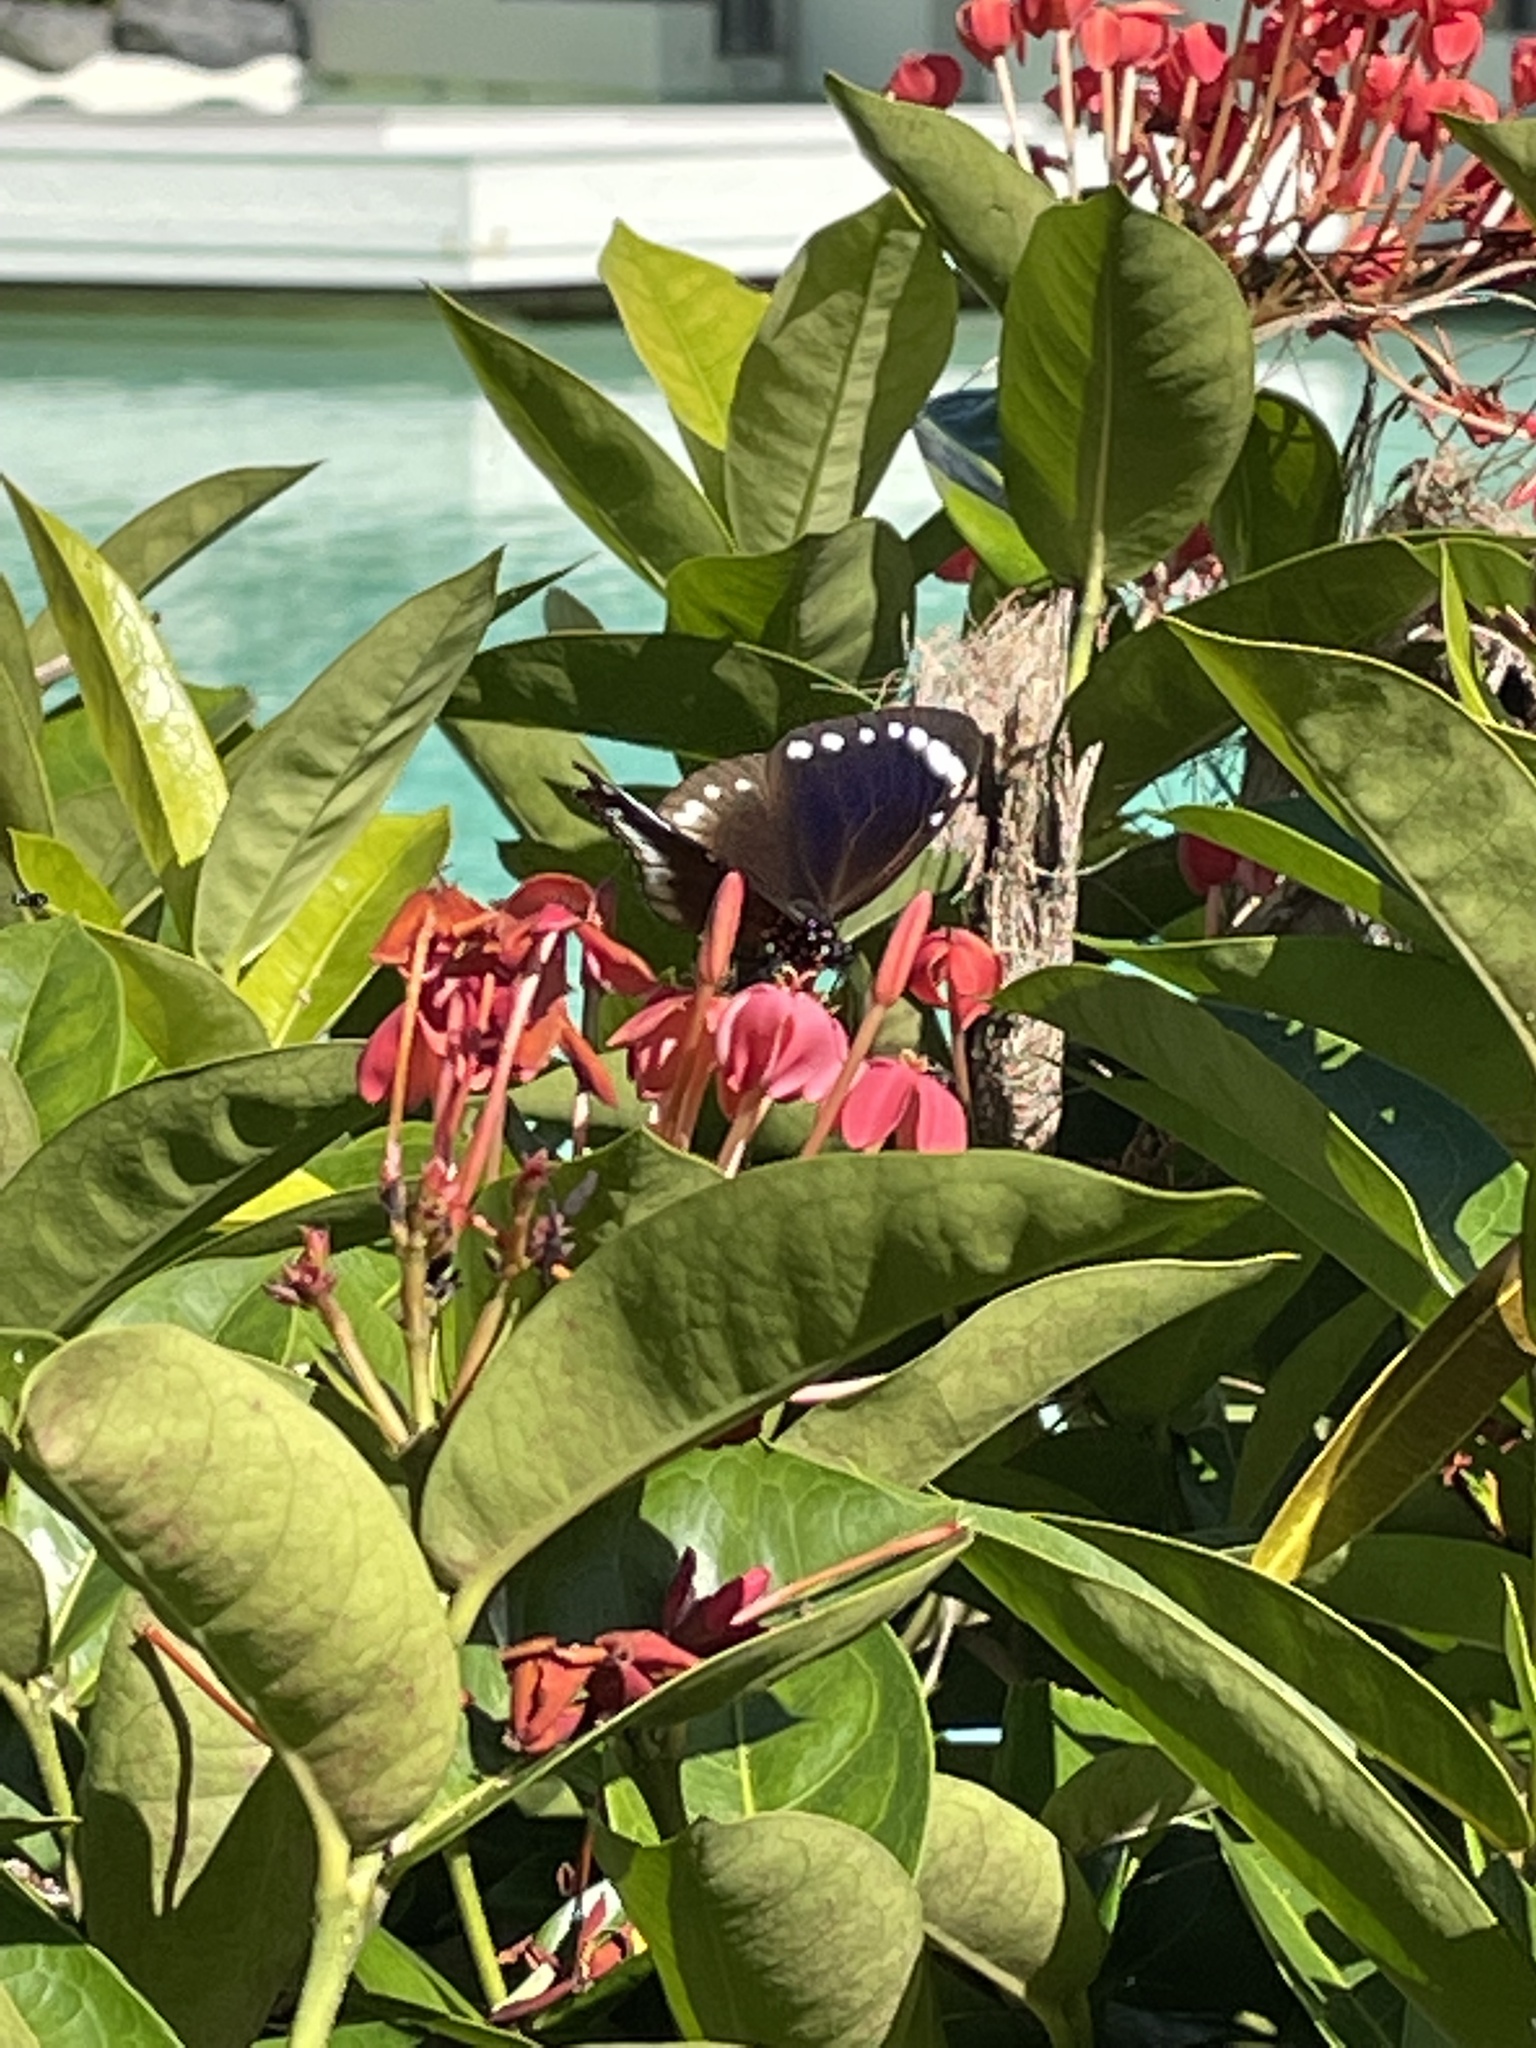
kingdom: Animalia
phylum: Arthropoda
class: Insecta
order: Lepidoptera
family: Nymphalidae
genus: Euploea
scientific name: Euploea darchia
